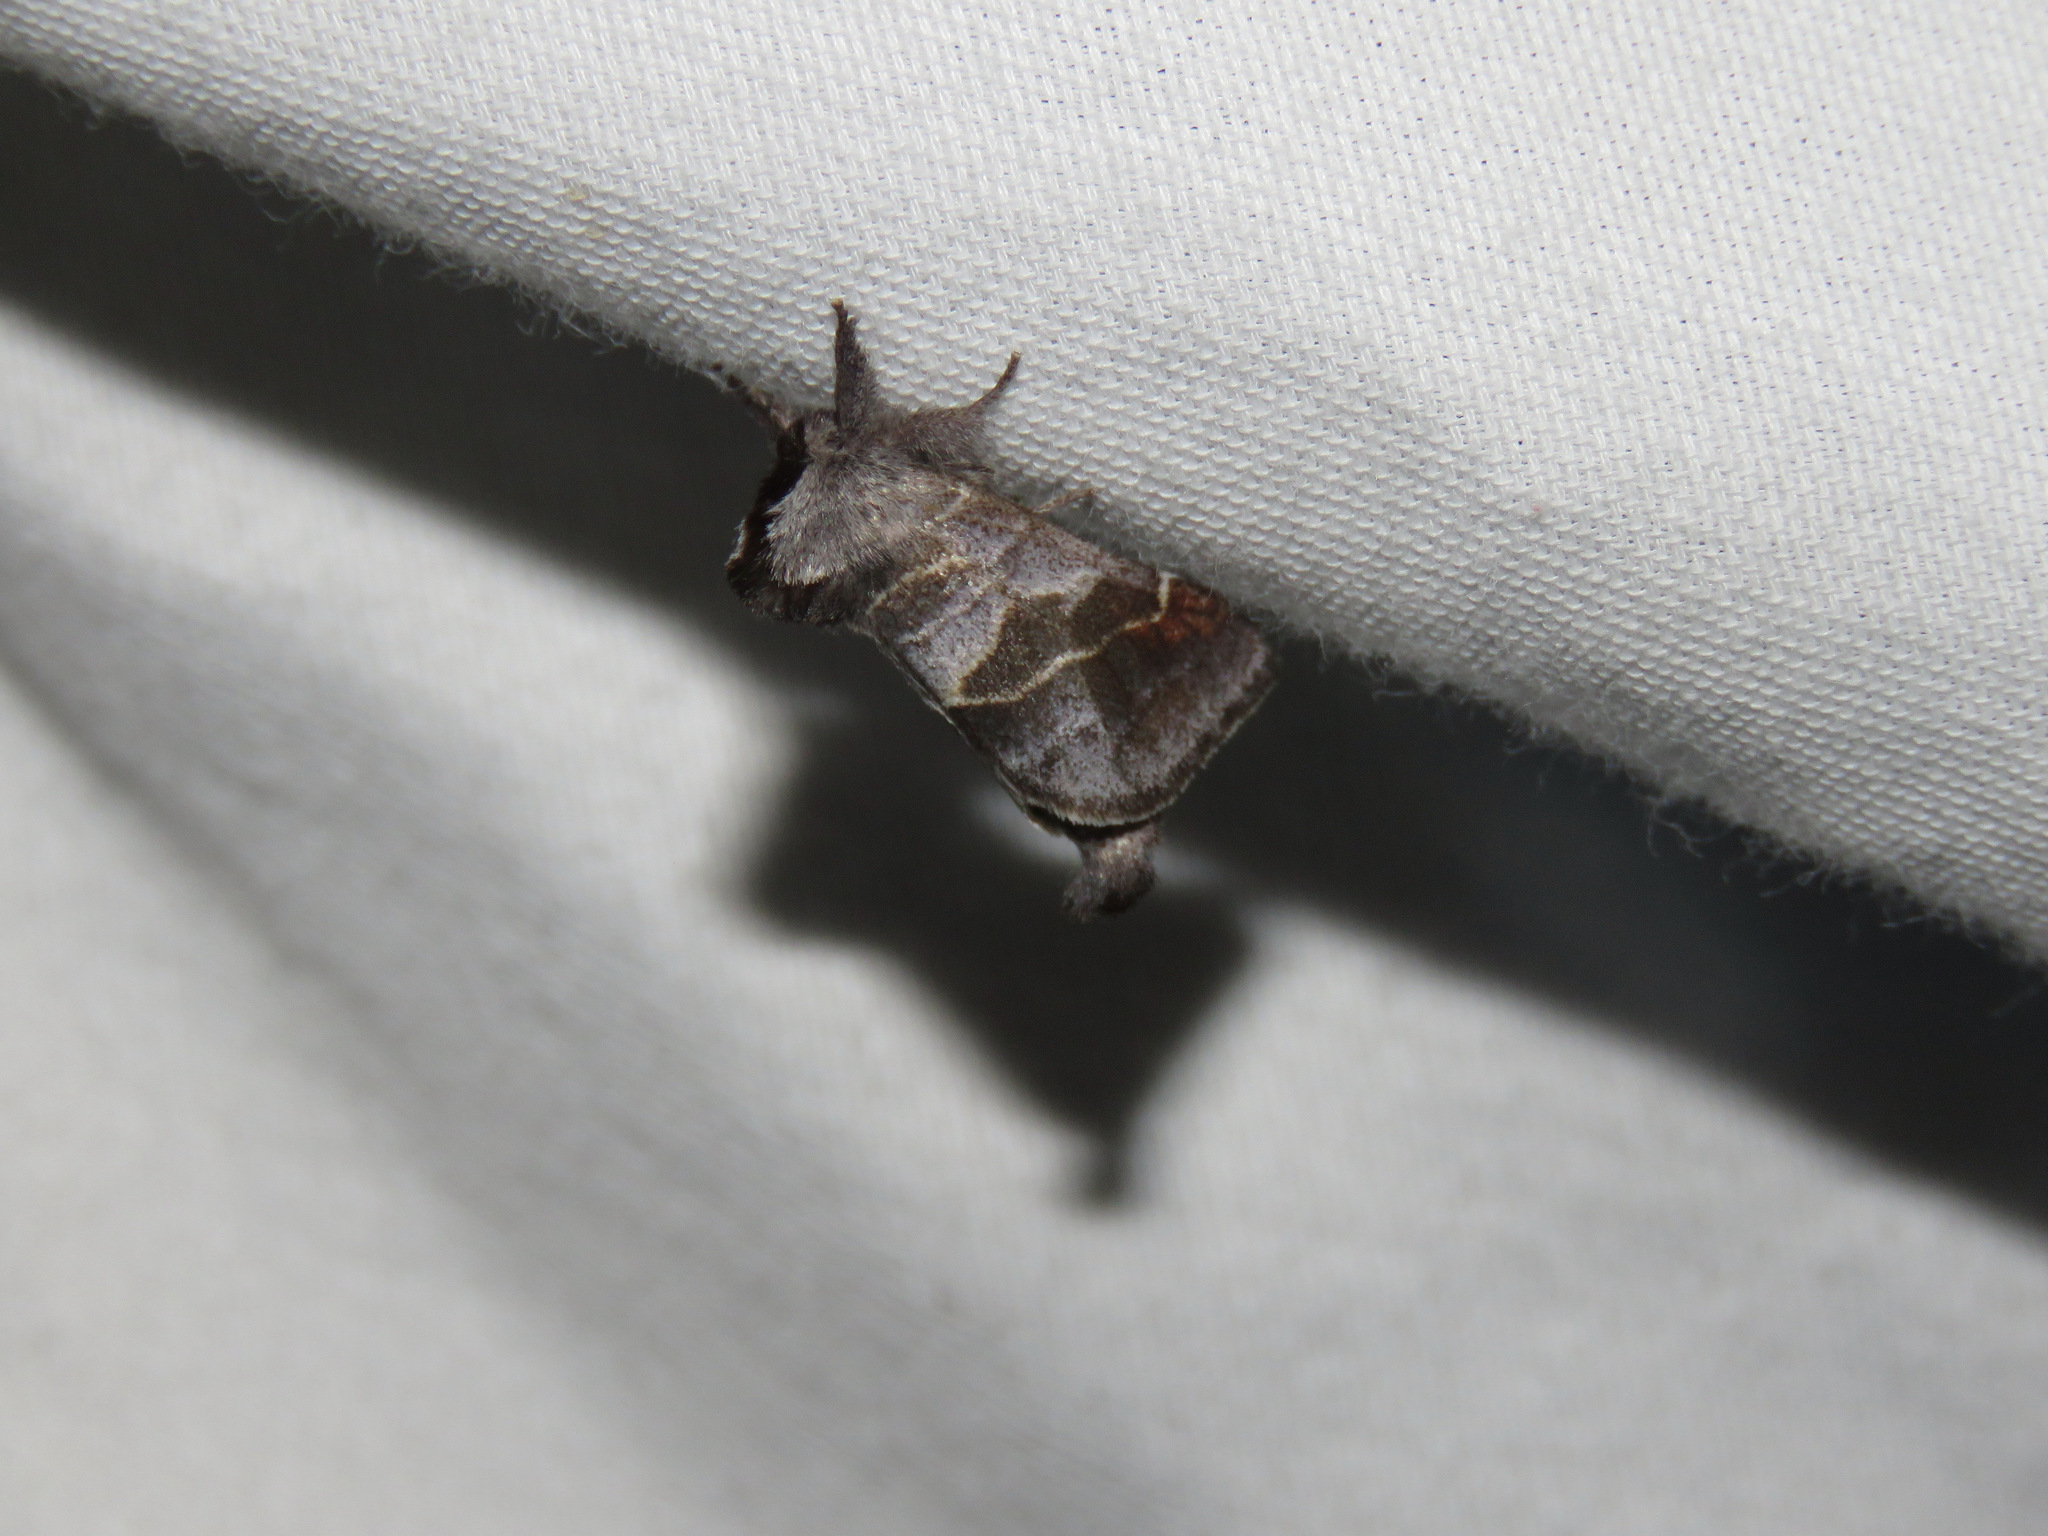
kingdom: Animalia
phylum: Arthropoda
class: Insecta
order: Lepidoptera
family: Notodontidae
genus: Clostera
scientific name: Clostera brucei
